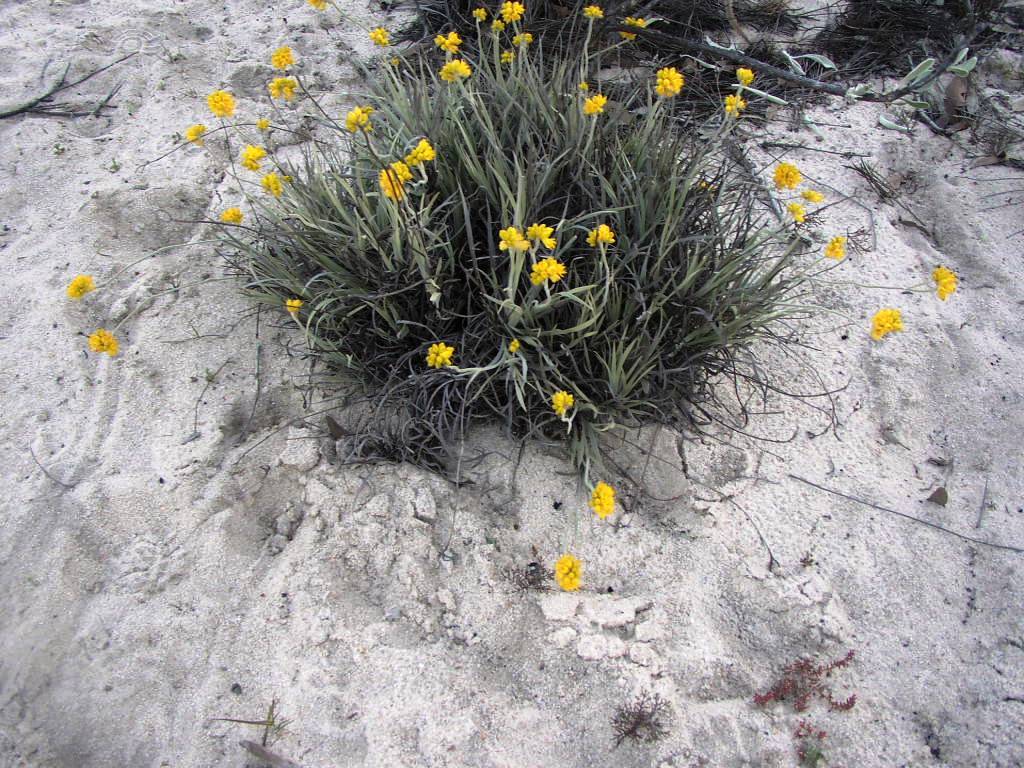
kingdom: Plantae
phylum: Tracheophyta
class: Liliopsida
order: Commelinales
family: Haemodoraceae
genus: Conostylis
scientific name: Conostylis candicans
